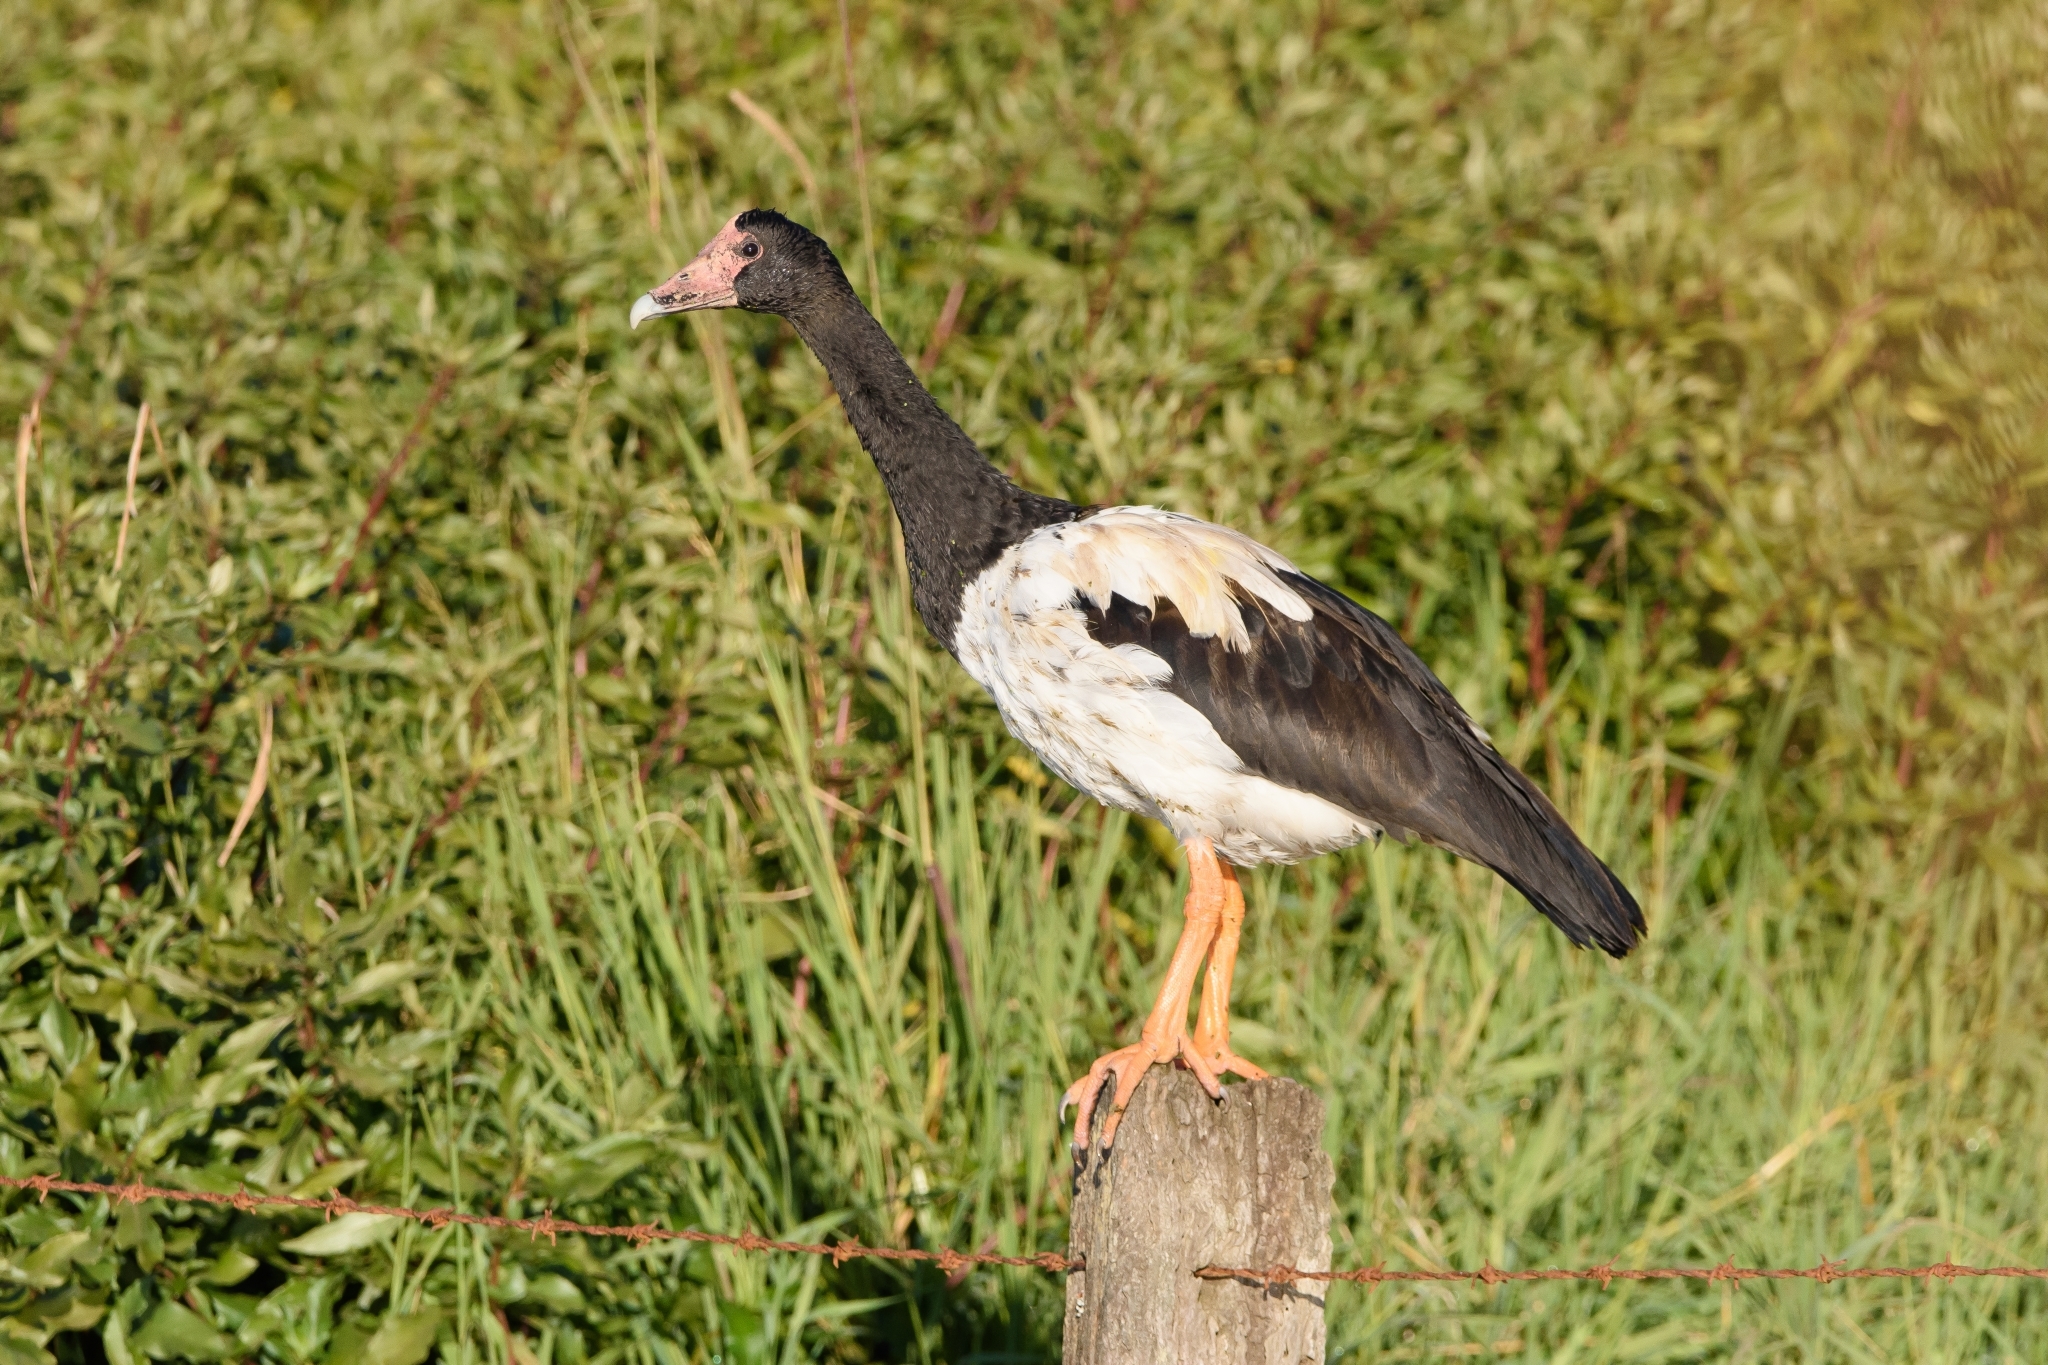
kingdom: Animalia
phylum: Chordata
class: Aves
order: Anseriformes
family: Anseranatidae
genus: Anseranas
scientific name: Anseranas semipalmata
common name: Magpie goose
